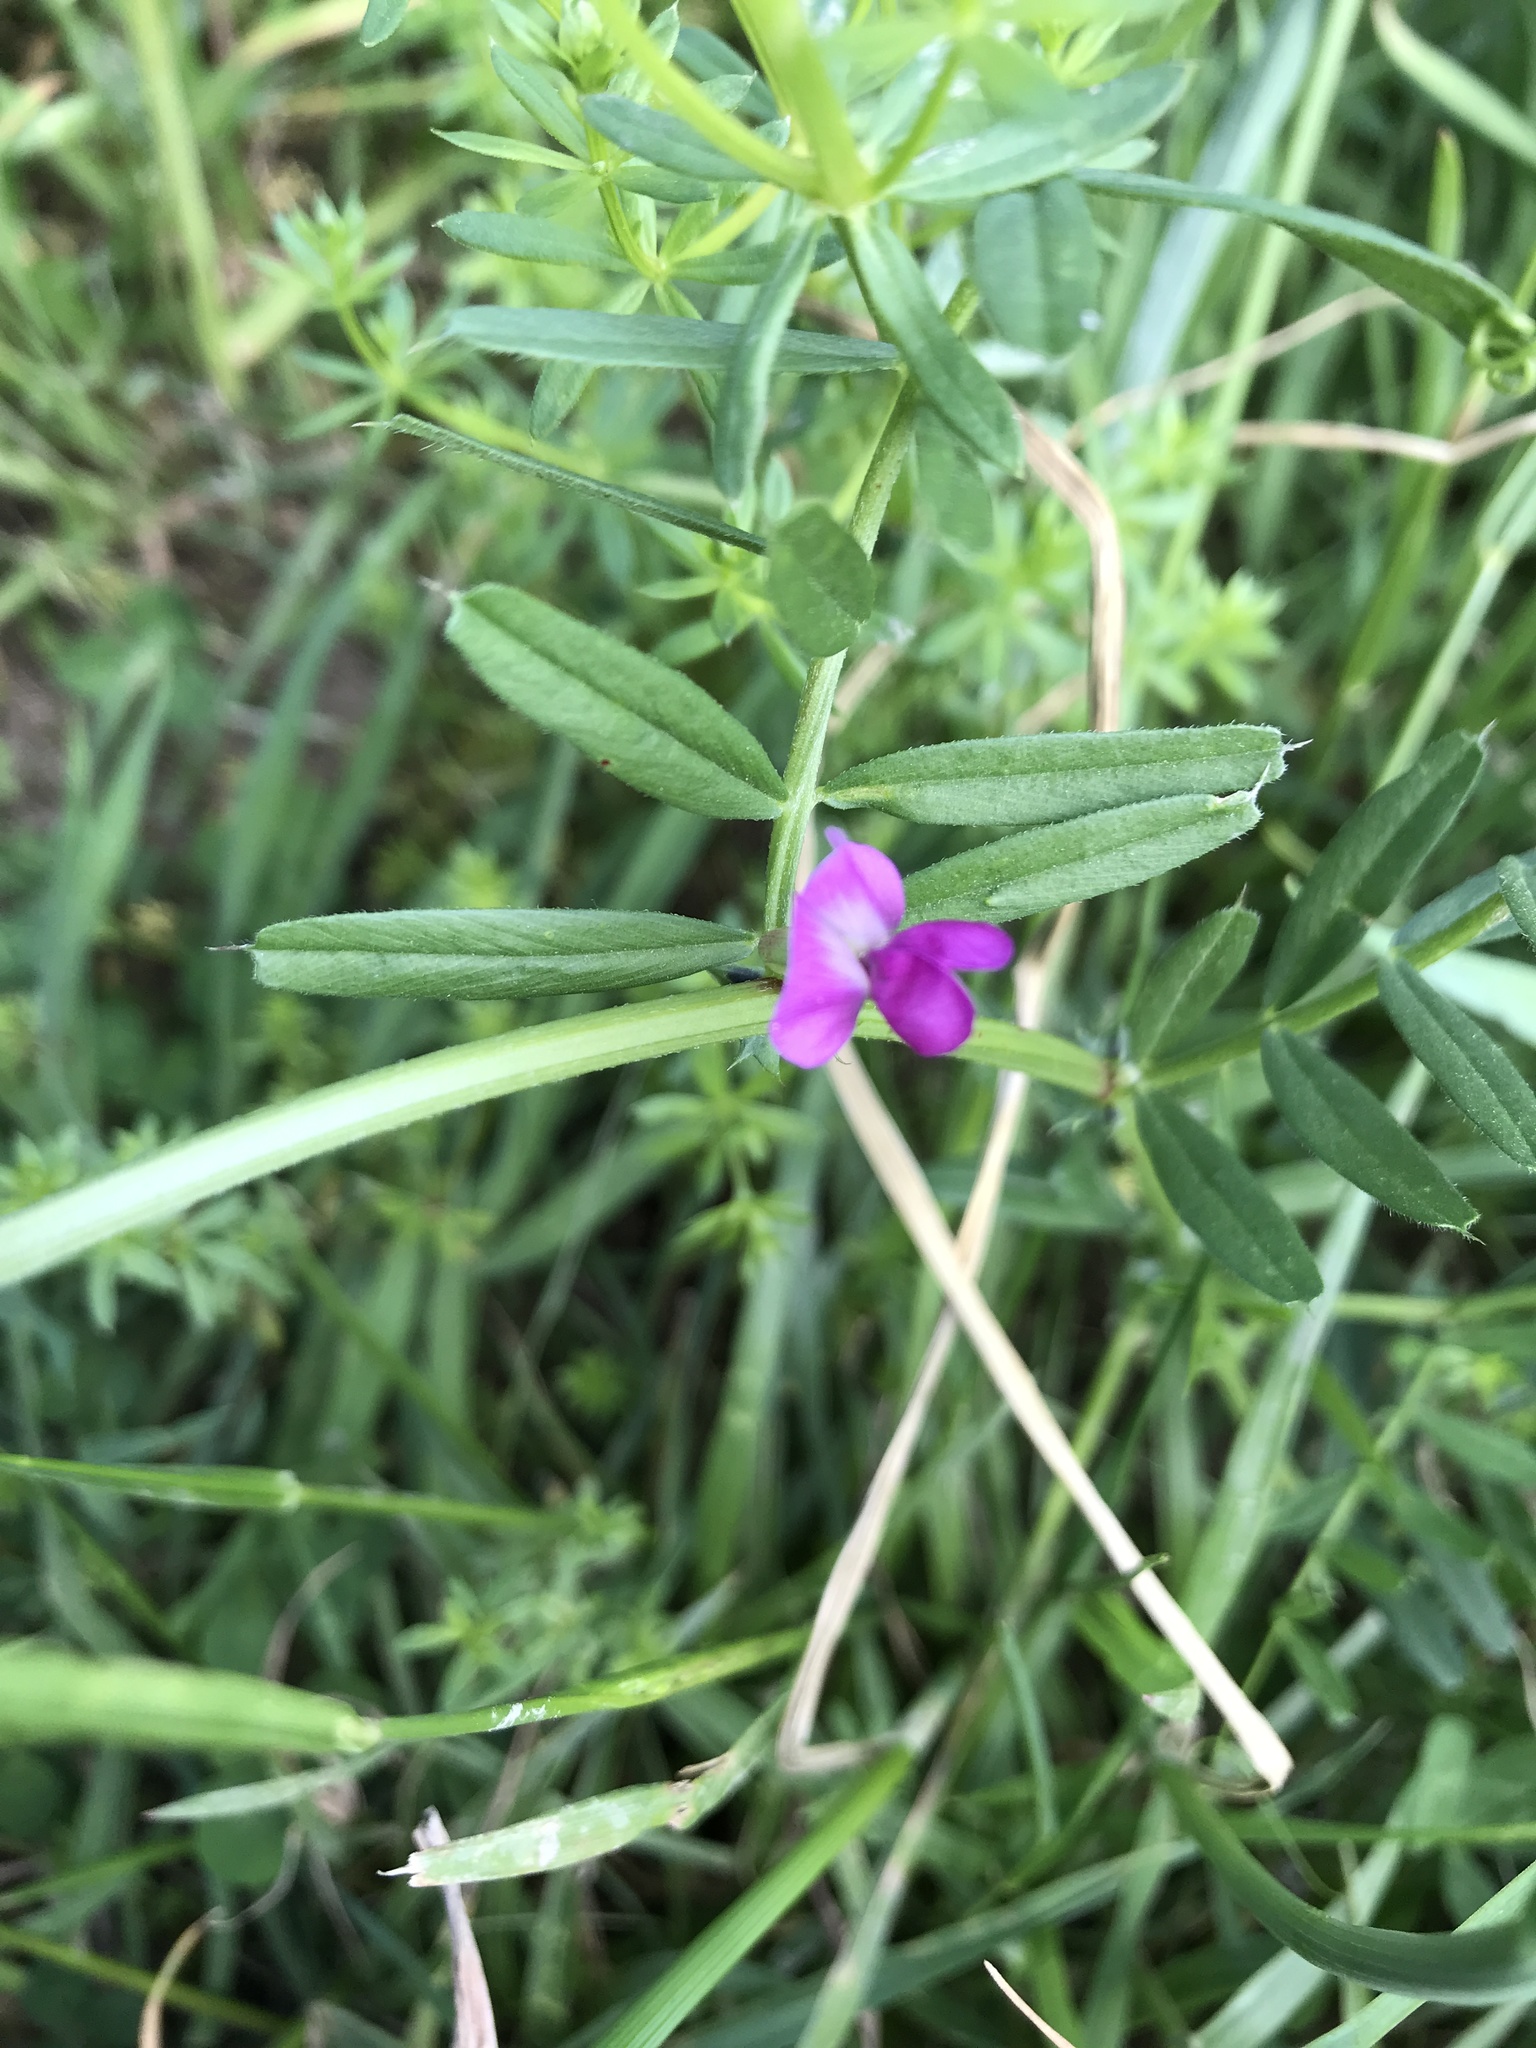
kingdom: Plantae
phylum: Tracheophyta
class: Magnoliopsida
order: Fabales
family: Fabaceae
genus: Vicia
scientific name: Vicia sativa
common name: Garden vetch
